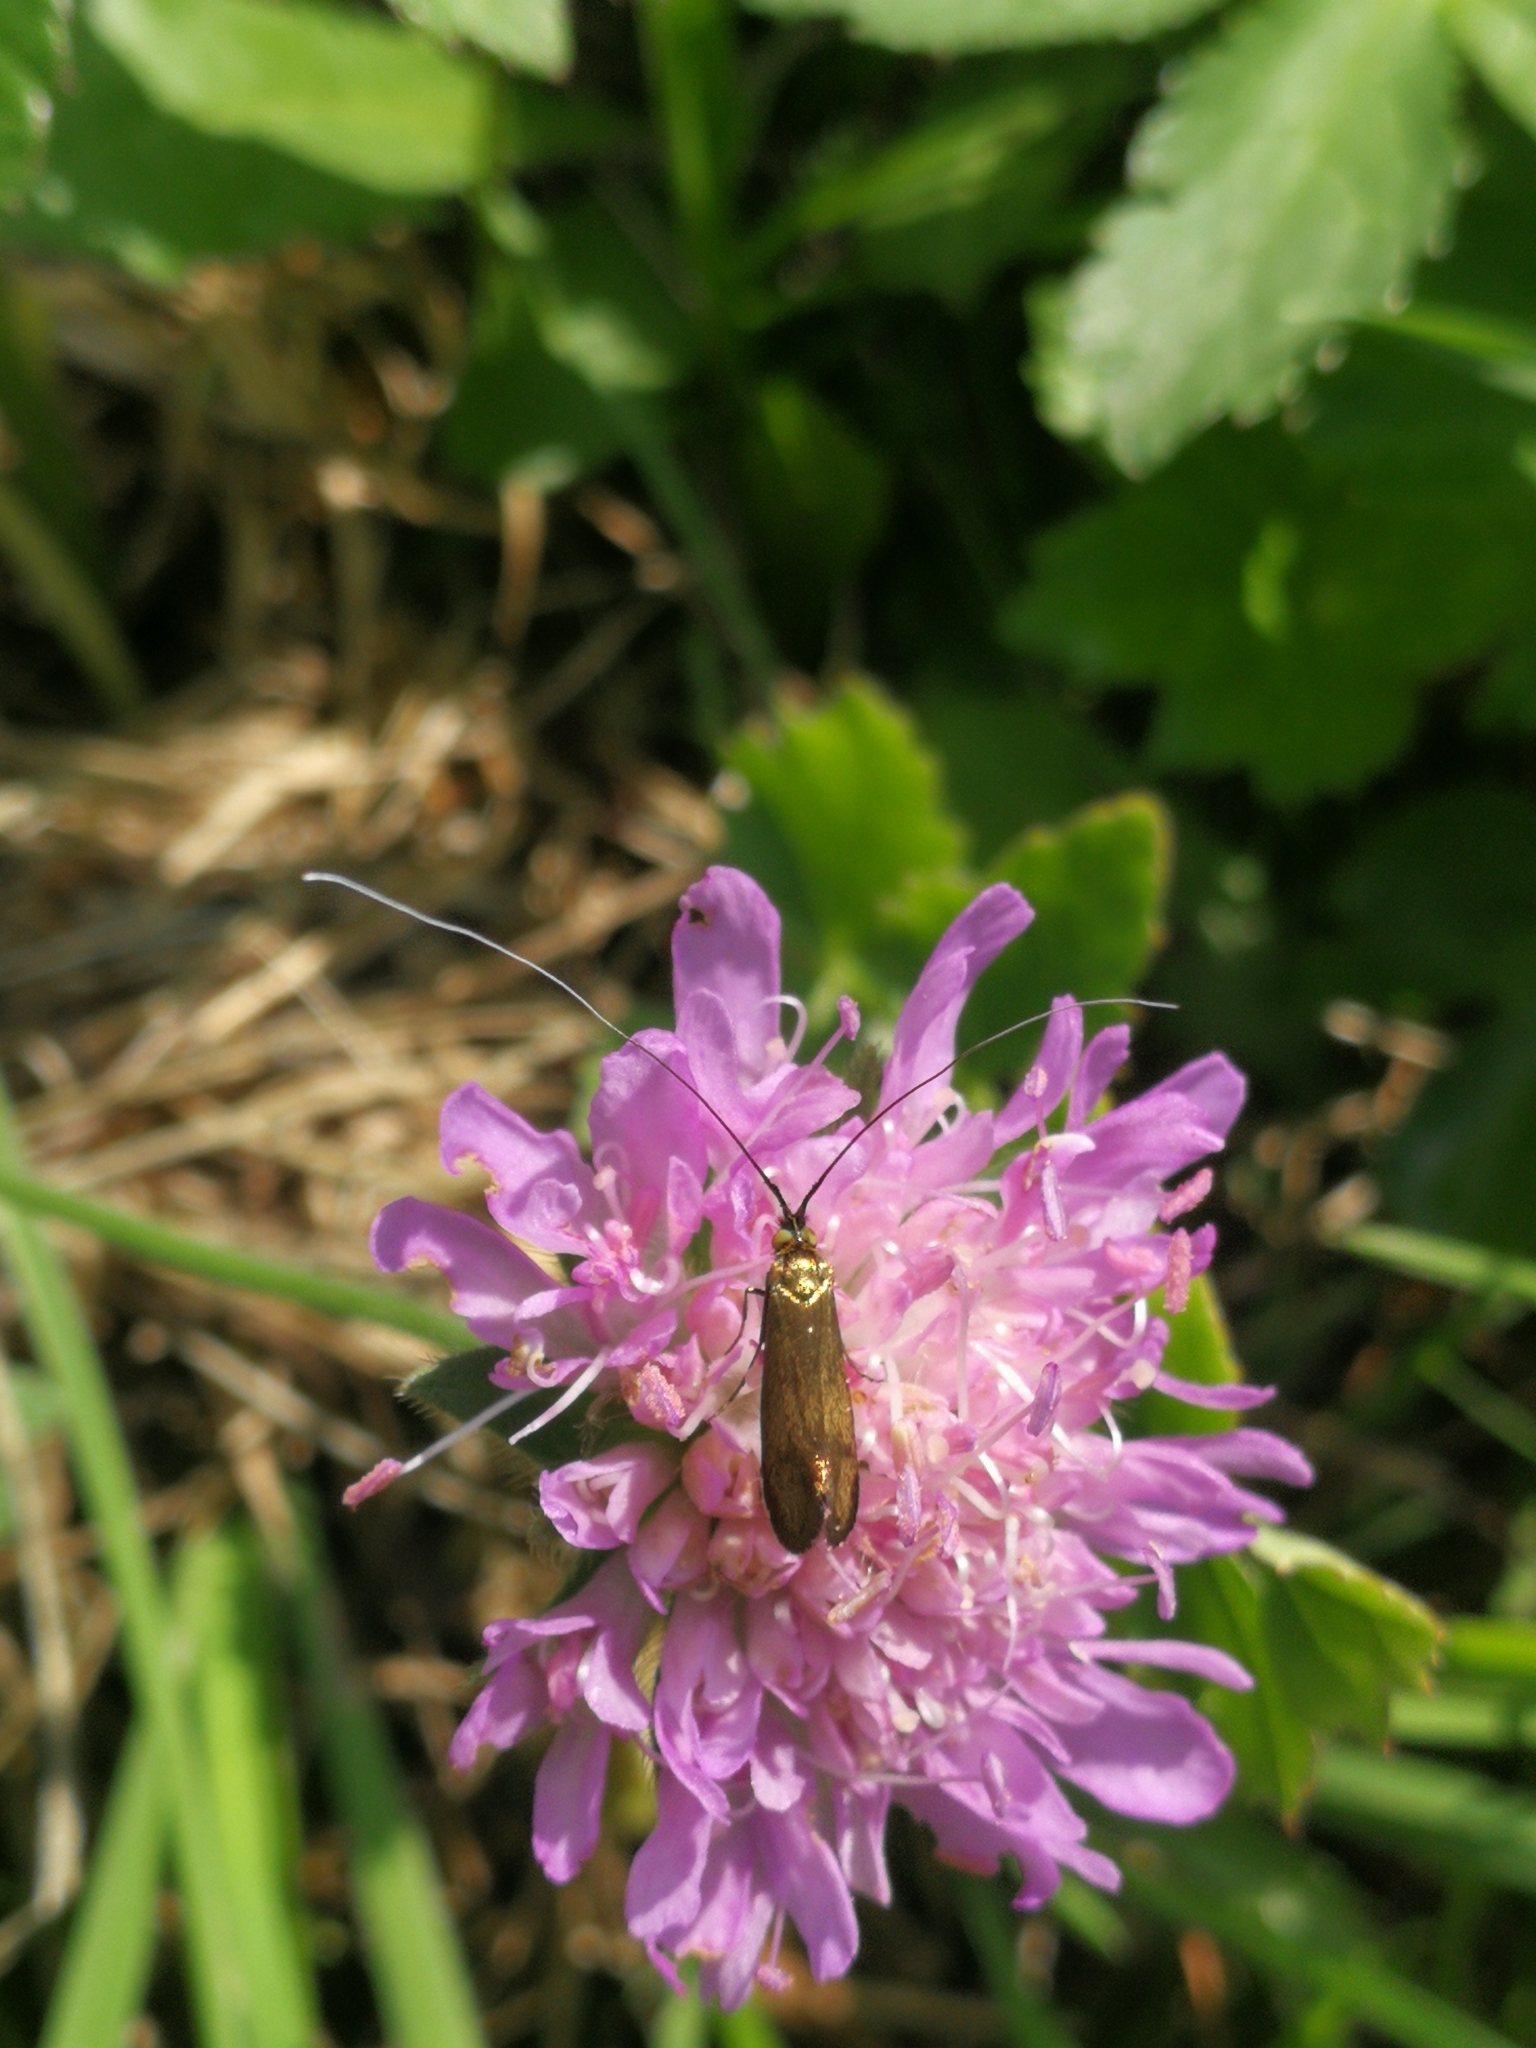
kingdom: Animalia
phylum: Arthropoda
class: Insecta
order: Lepidoptera
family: Adelidae
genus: Nemophora
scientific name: Nemophora metallica
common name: Brassy long-horn
